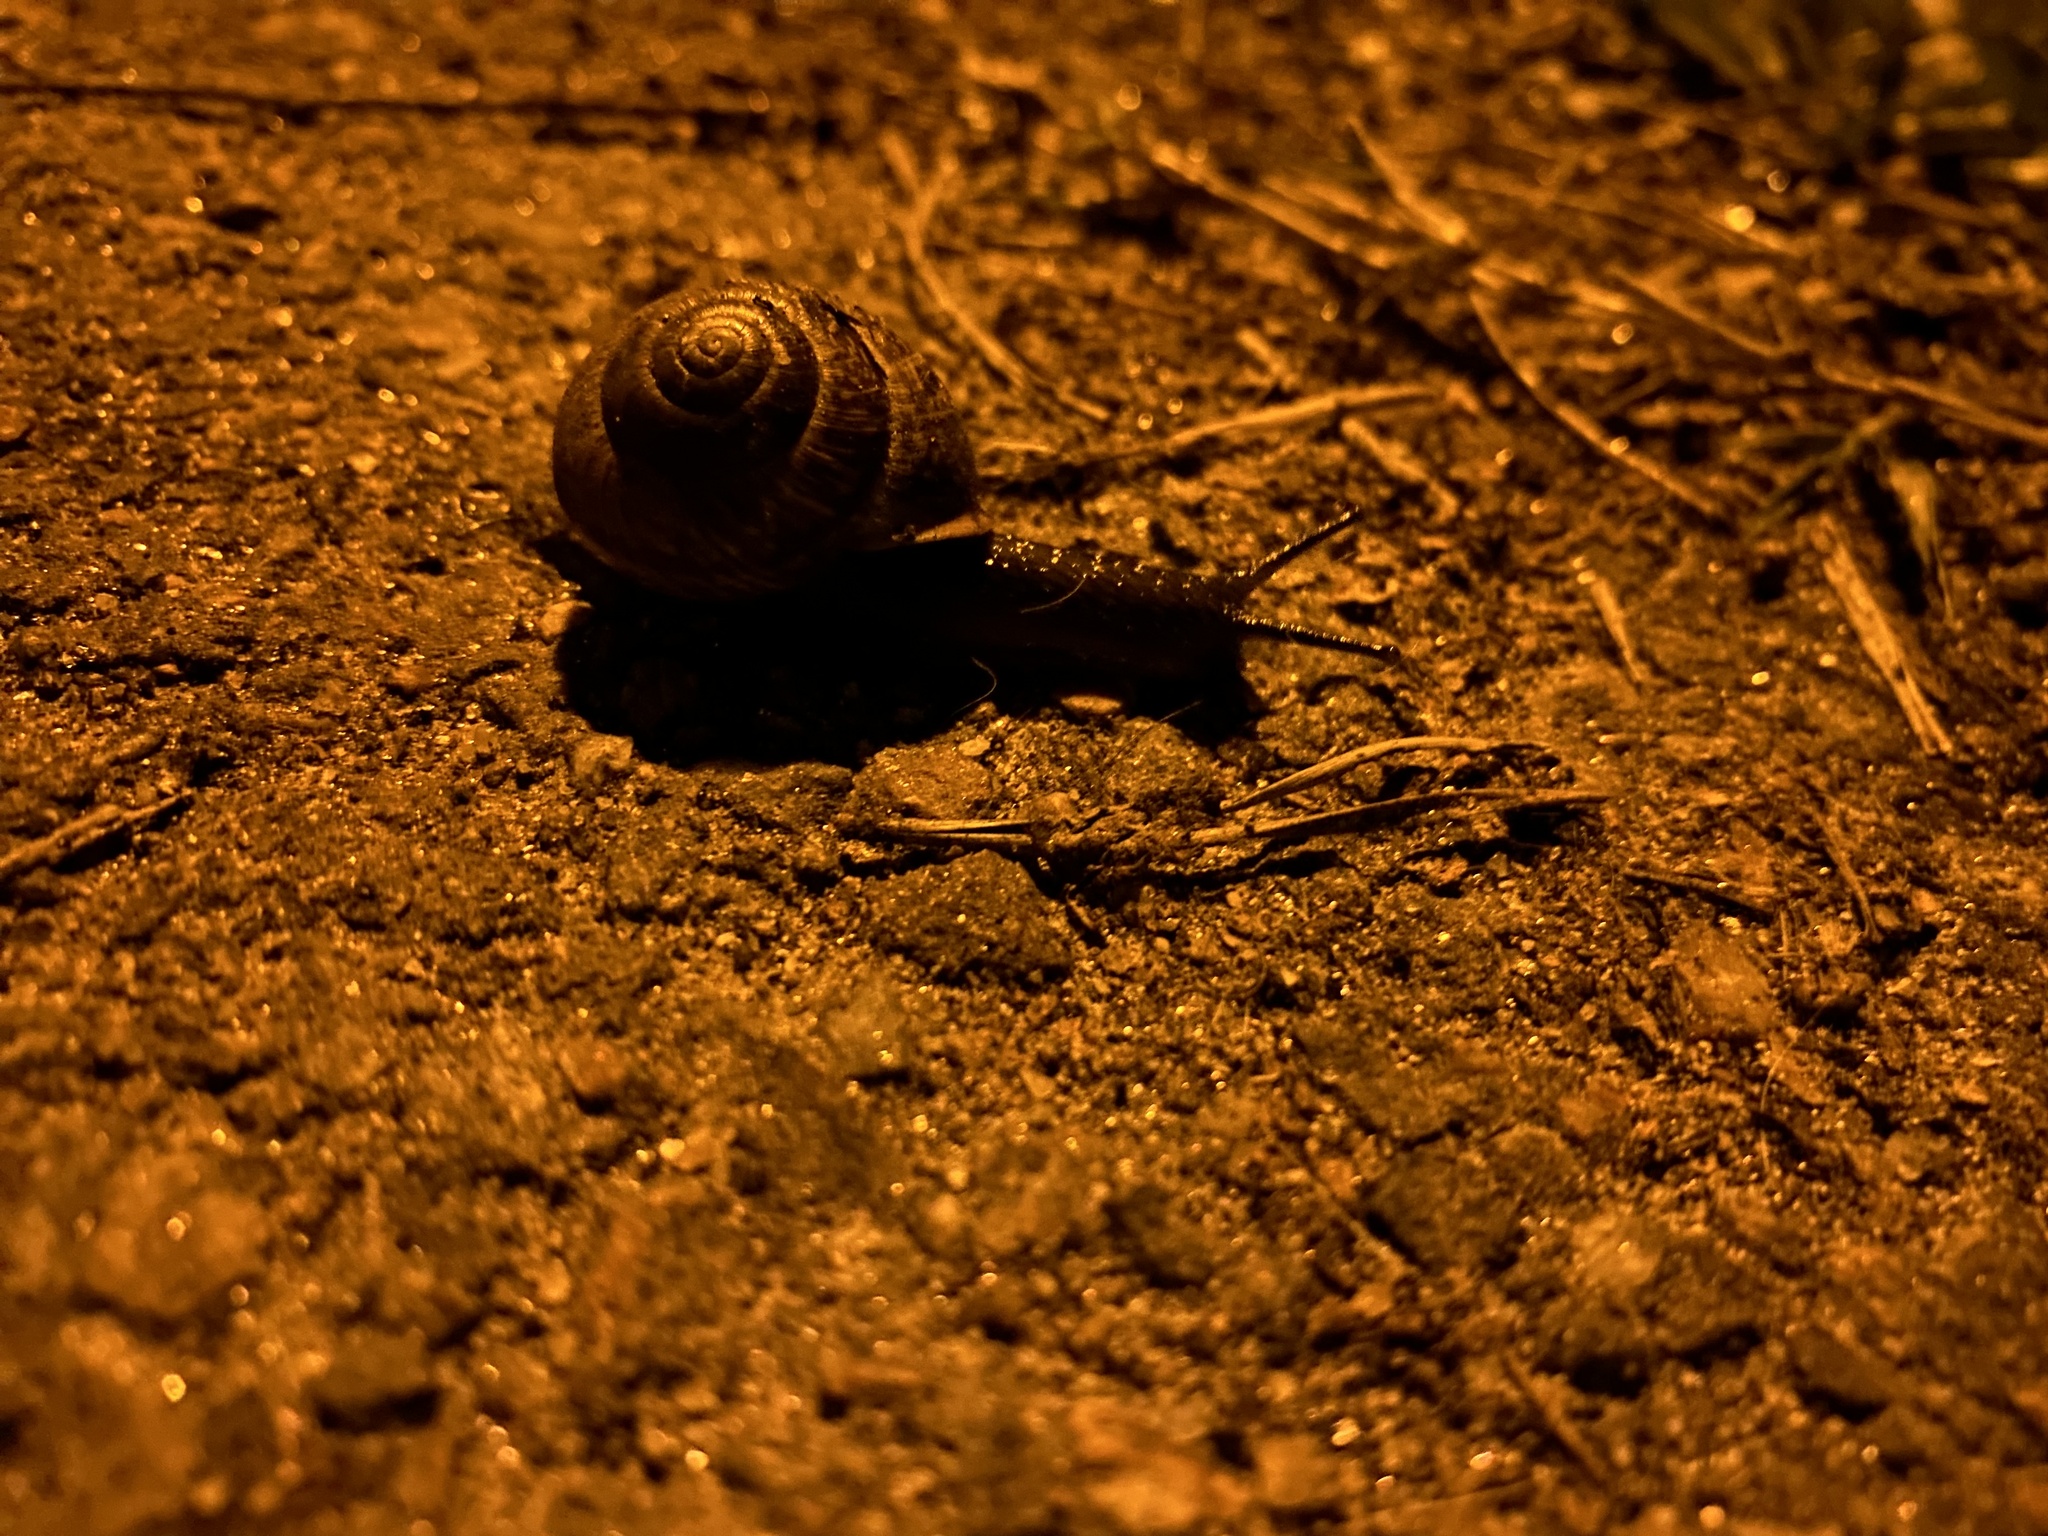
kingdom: Animalia
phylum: Mollusca
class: Gastropoda
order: Stylommatophora
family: Helicidae
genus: Arianta
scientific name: Arianta arbustorum
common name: Copse snail
